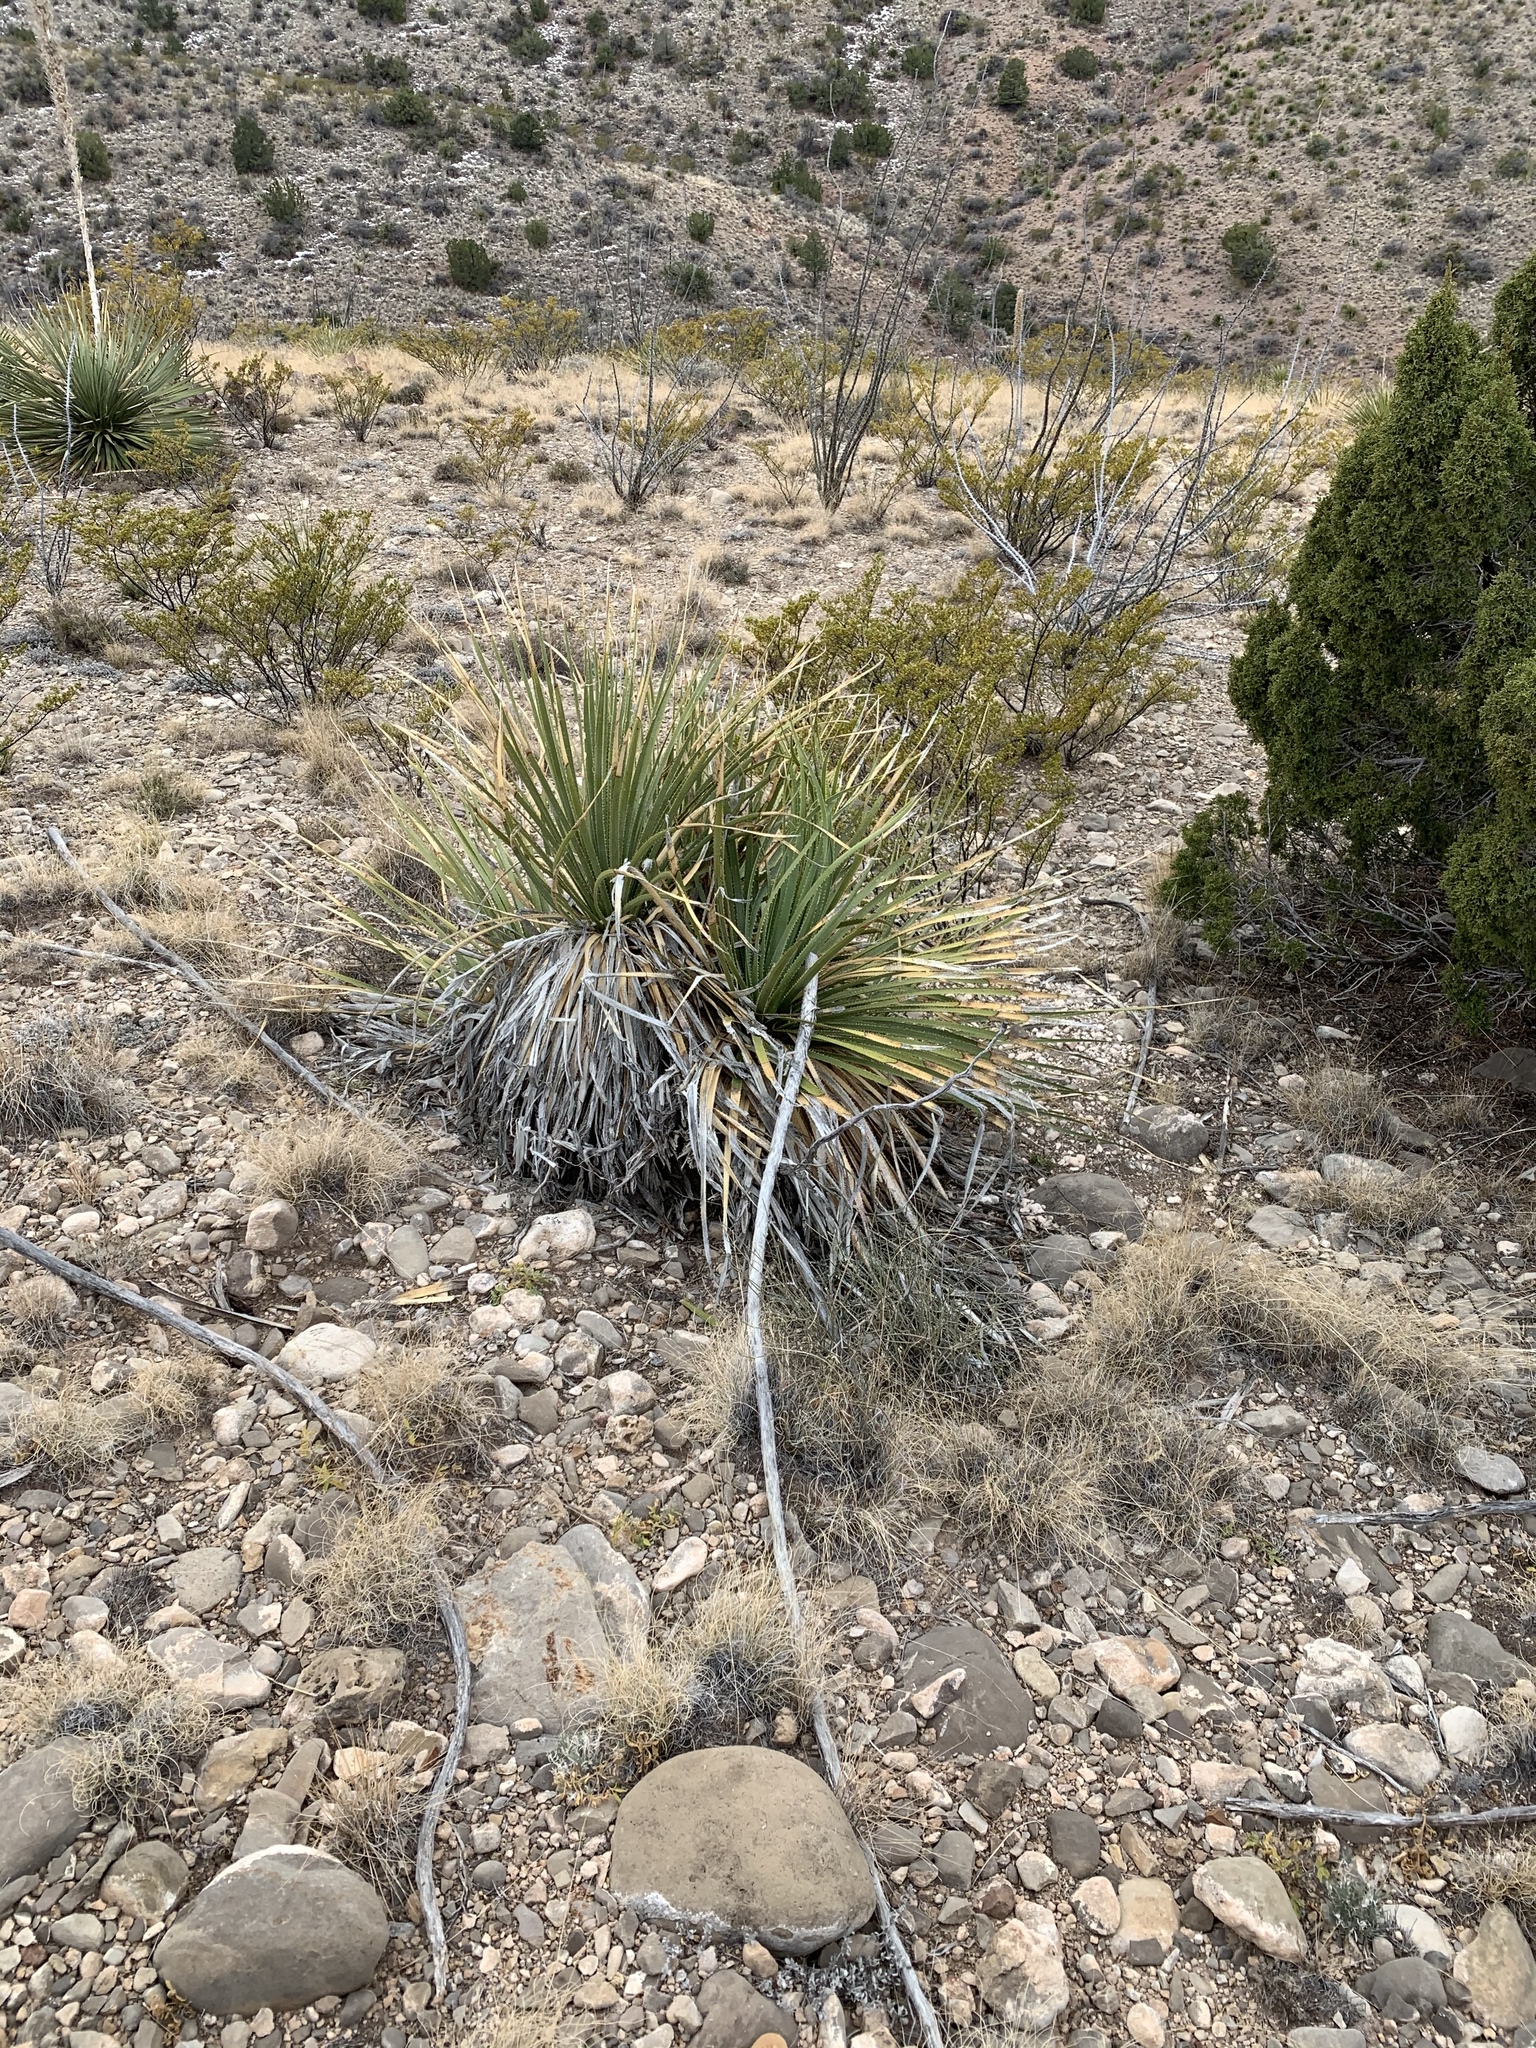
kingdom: Plantae
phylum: Tracheophyta
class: Liliopsida
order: Asparagales
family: Asparagaceae
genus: Yucca
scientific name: Yucca elata
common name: Palmella
